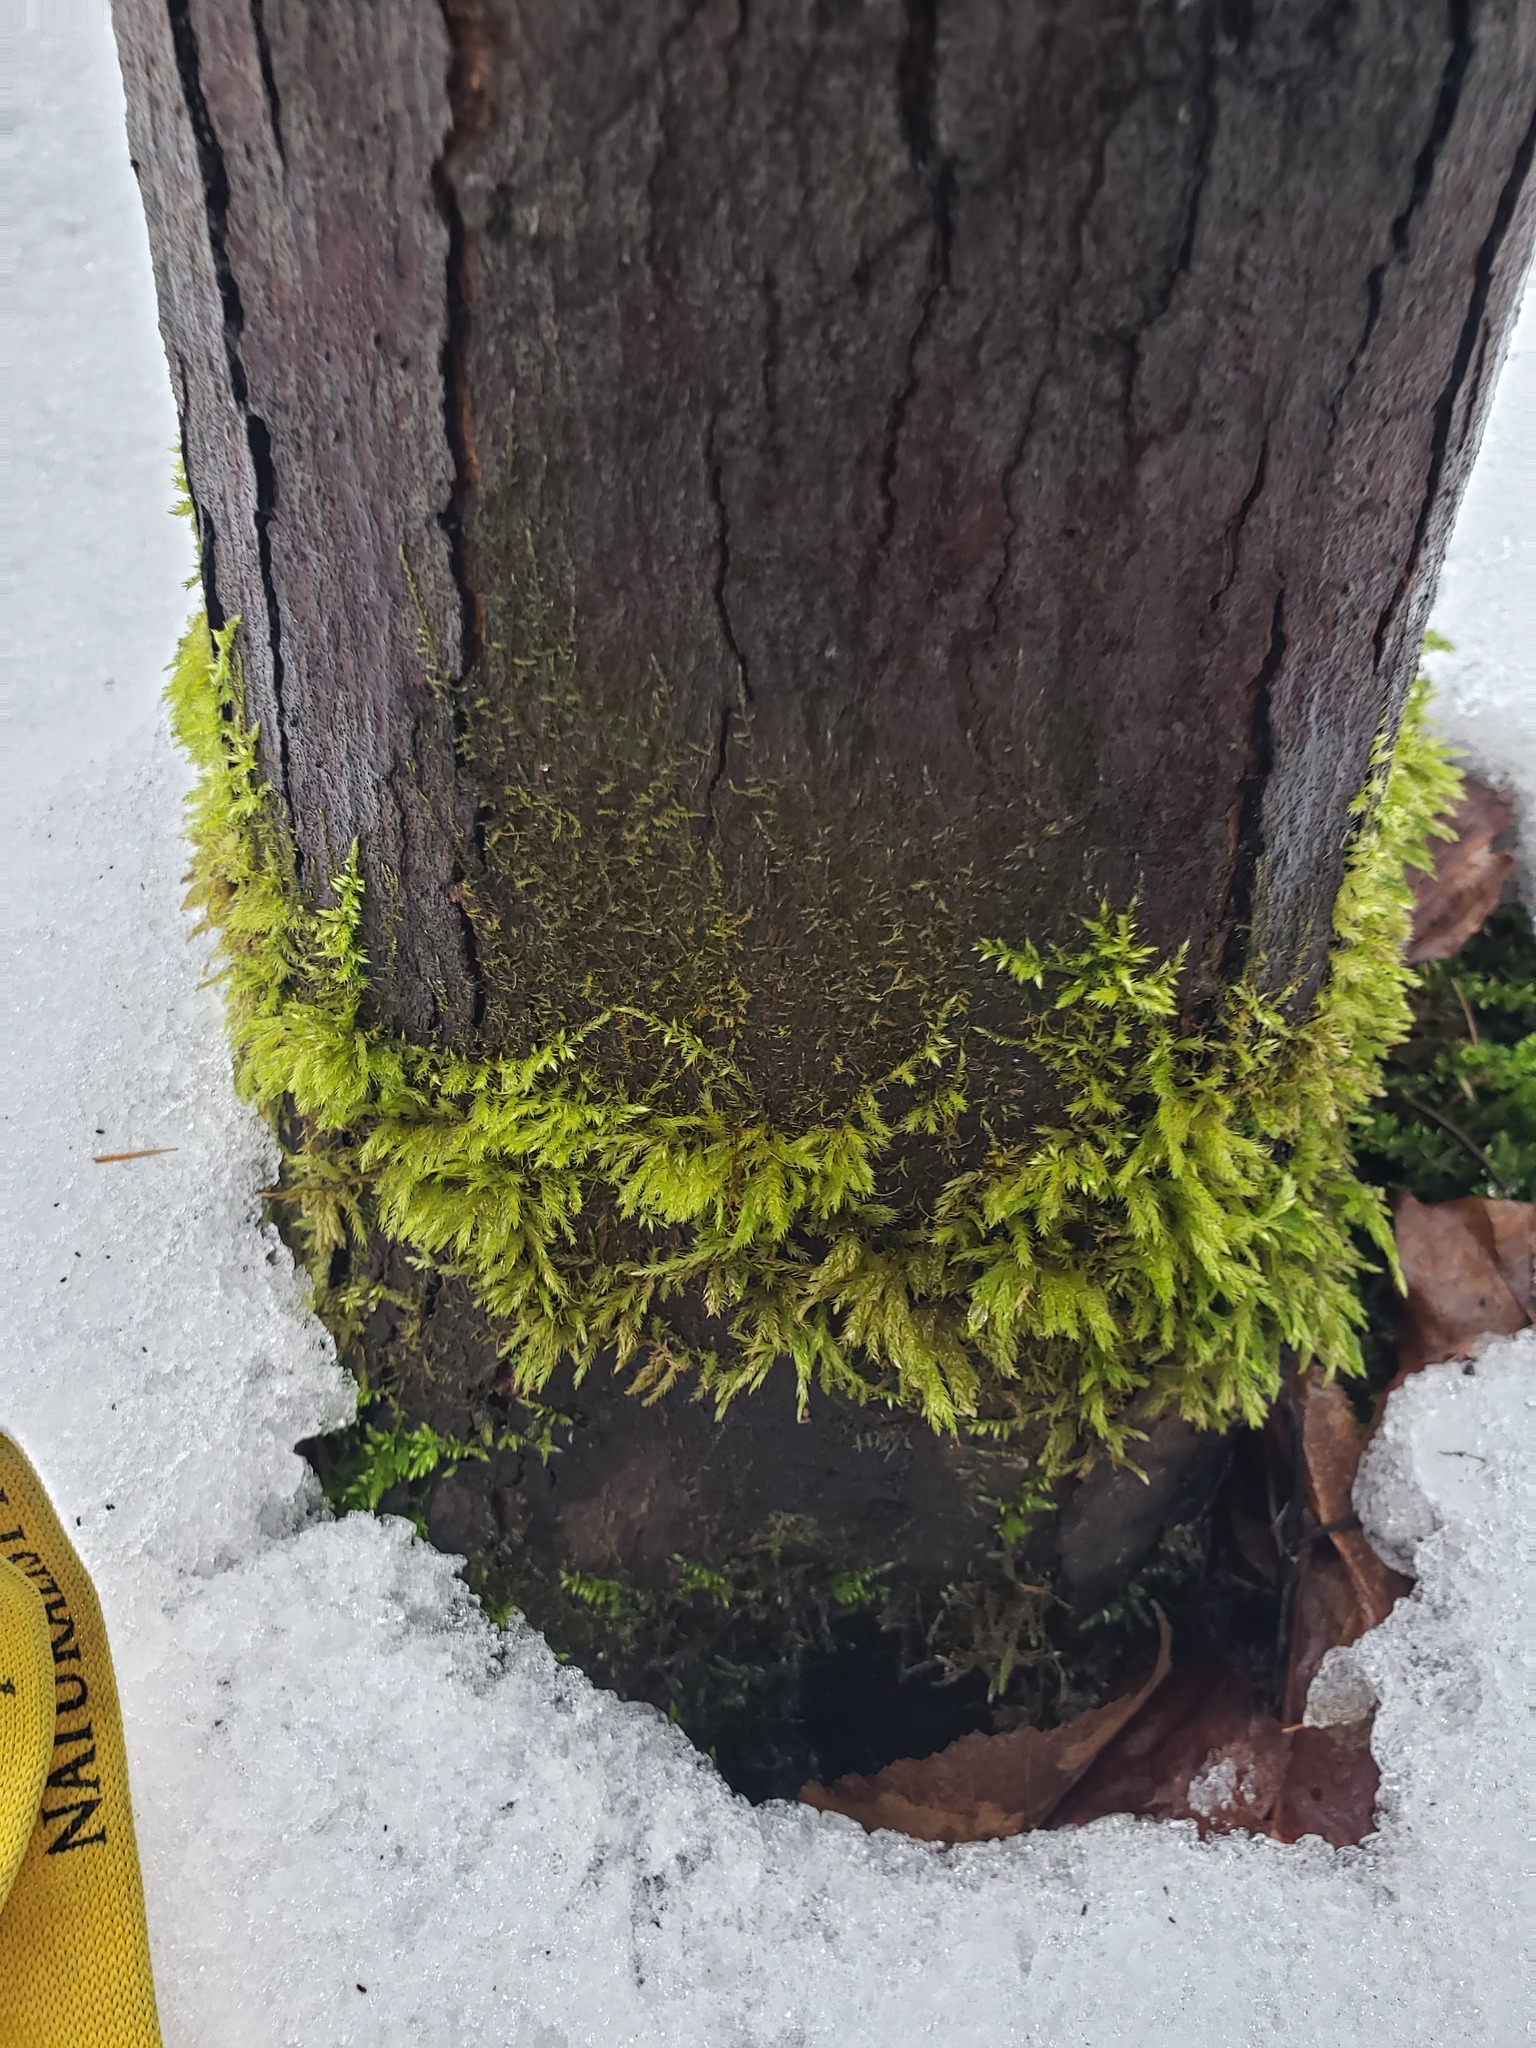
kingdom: Plantae
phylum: Bryophyta
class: Bryopsida
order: Hypnales
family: Callicladiaceae
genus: Callicladium
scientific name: Callicladium haldanianum
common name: Beautiful branch moss
